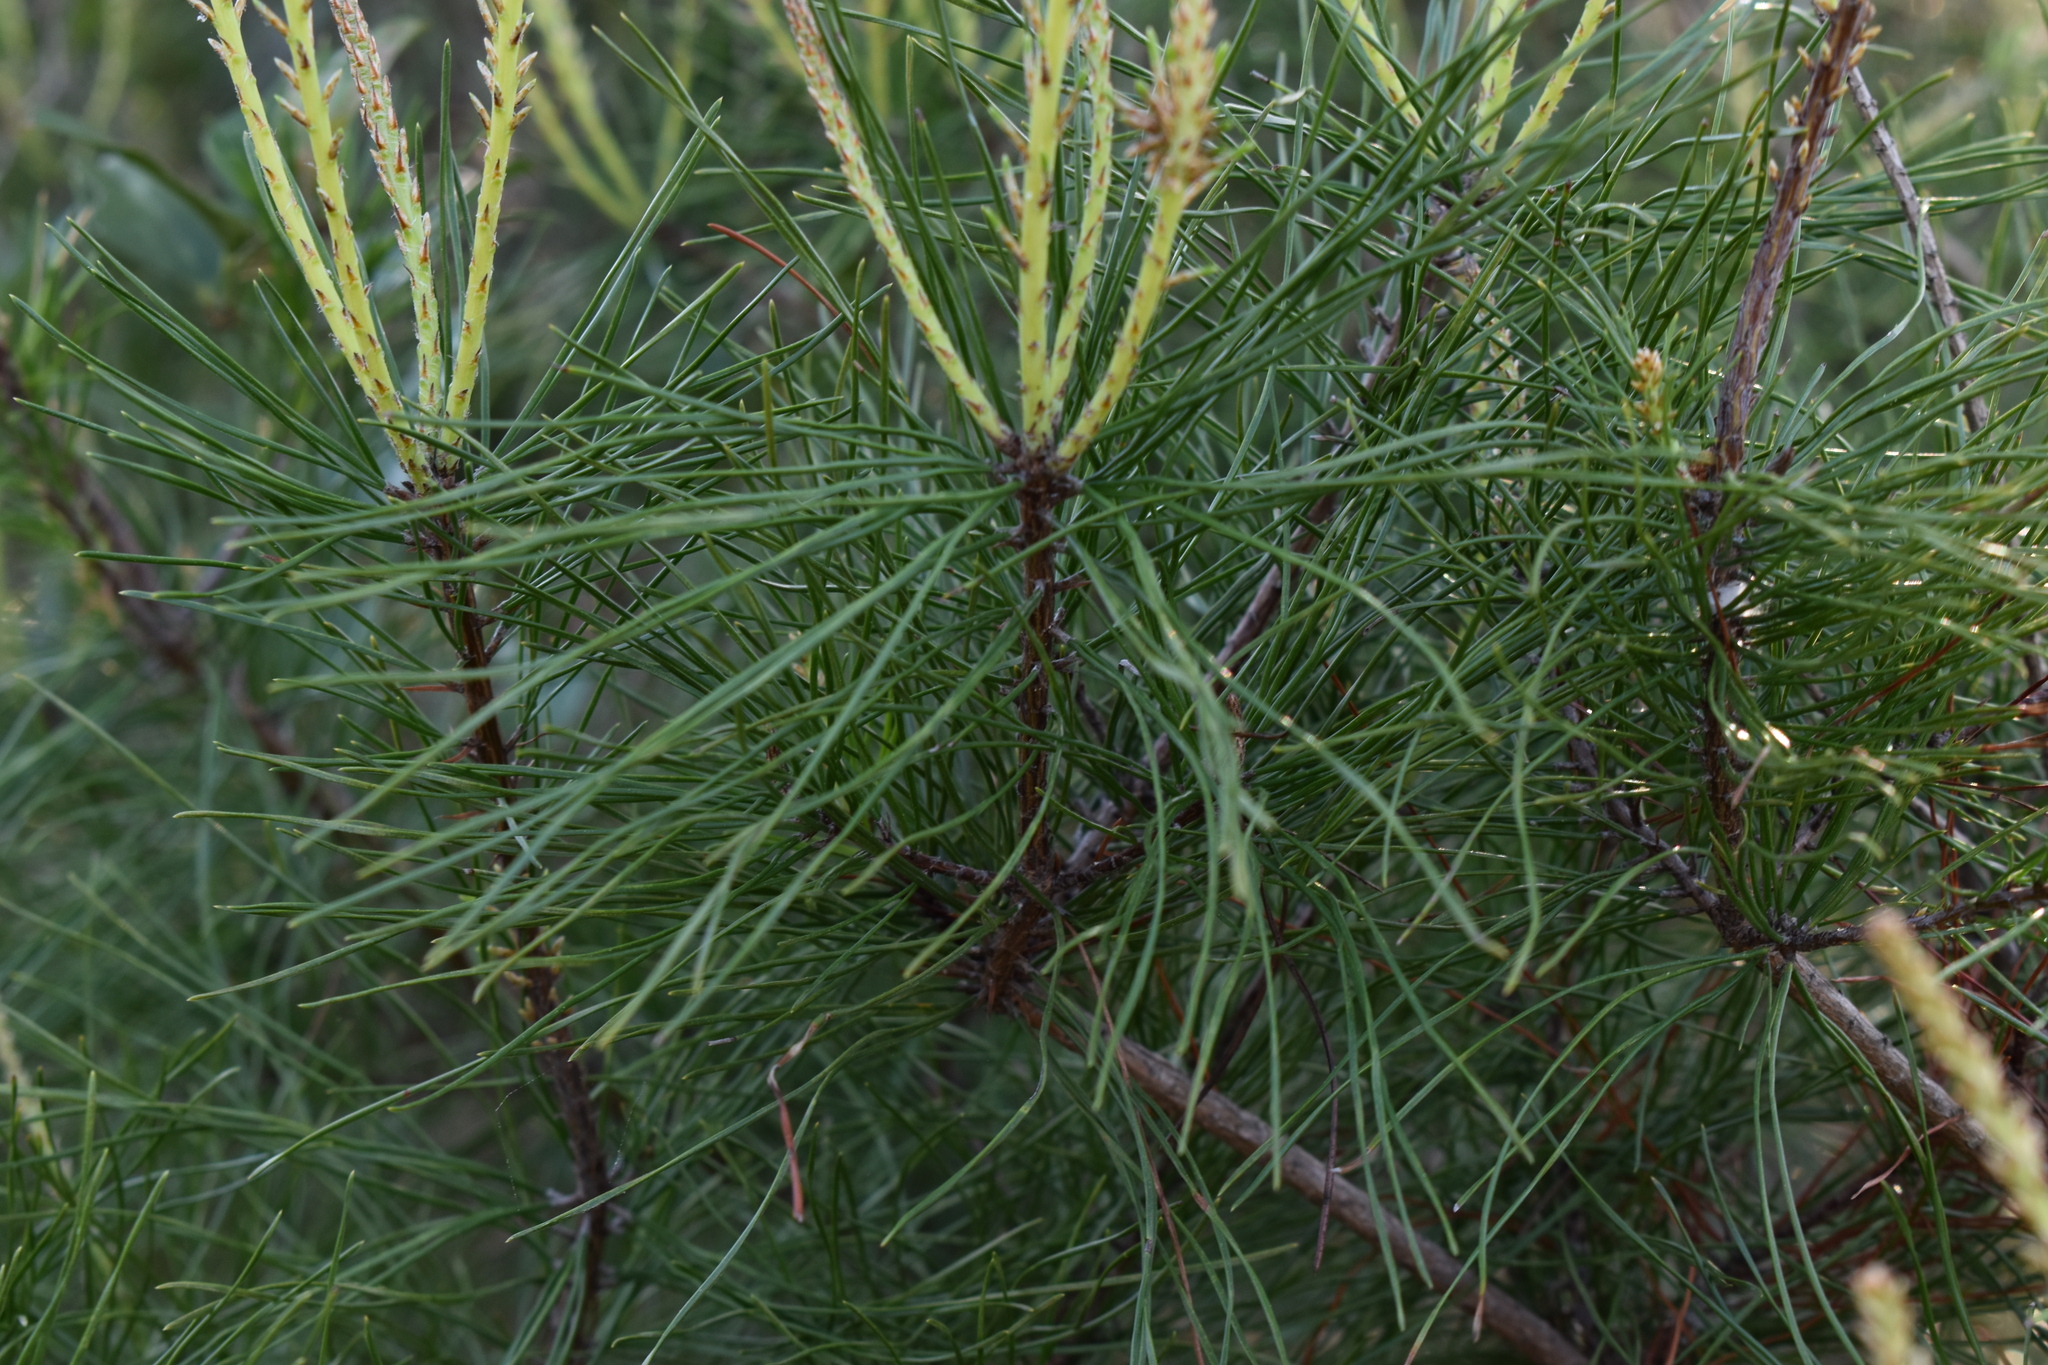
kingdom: Plantae
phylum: Tracheophyta
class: Pinopsida
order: Pinales
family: Pinaceae
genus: Pinus
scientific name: Pinus clausa
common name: Sand pine
